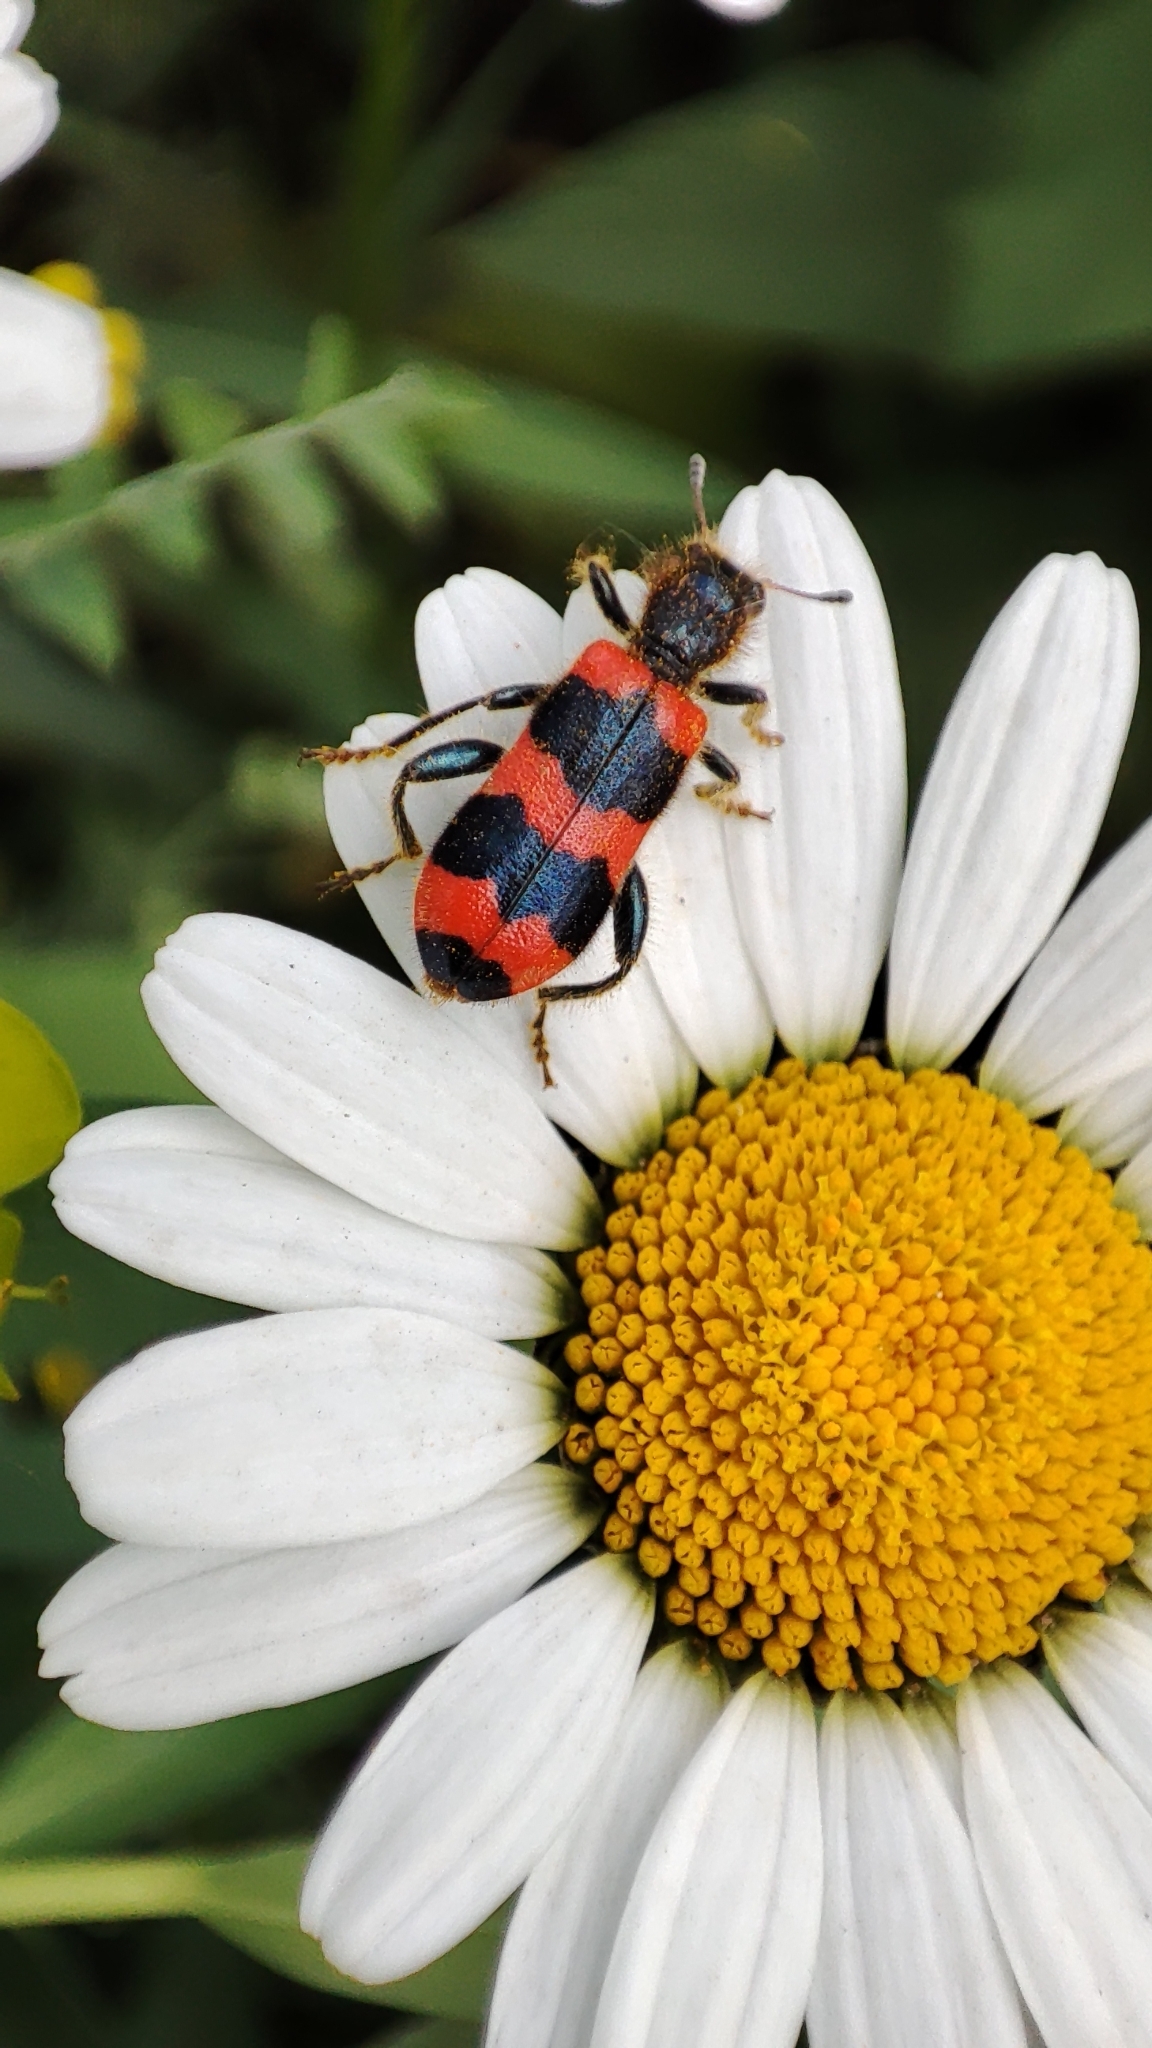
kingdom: Animalia
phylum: Arthropoda
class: Insecta
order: Coleoptera
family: Cleridae
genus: Trichodes
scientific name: Trichodes apiarius
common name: Bee-eating beetle
